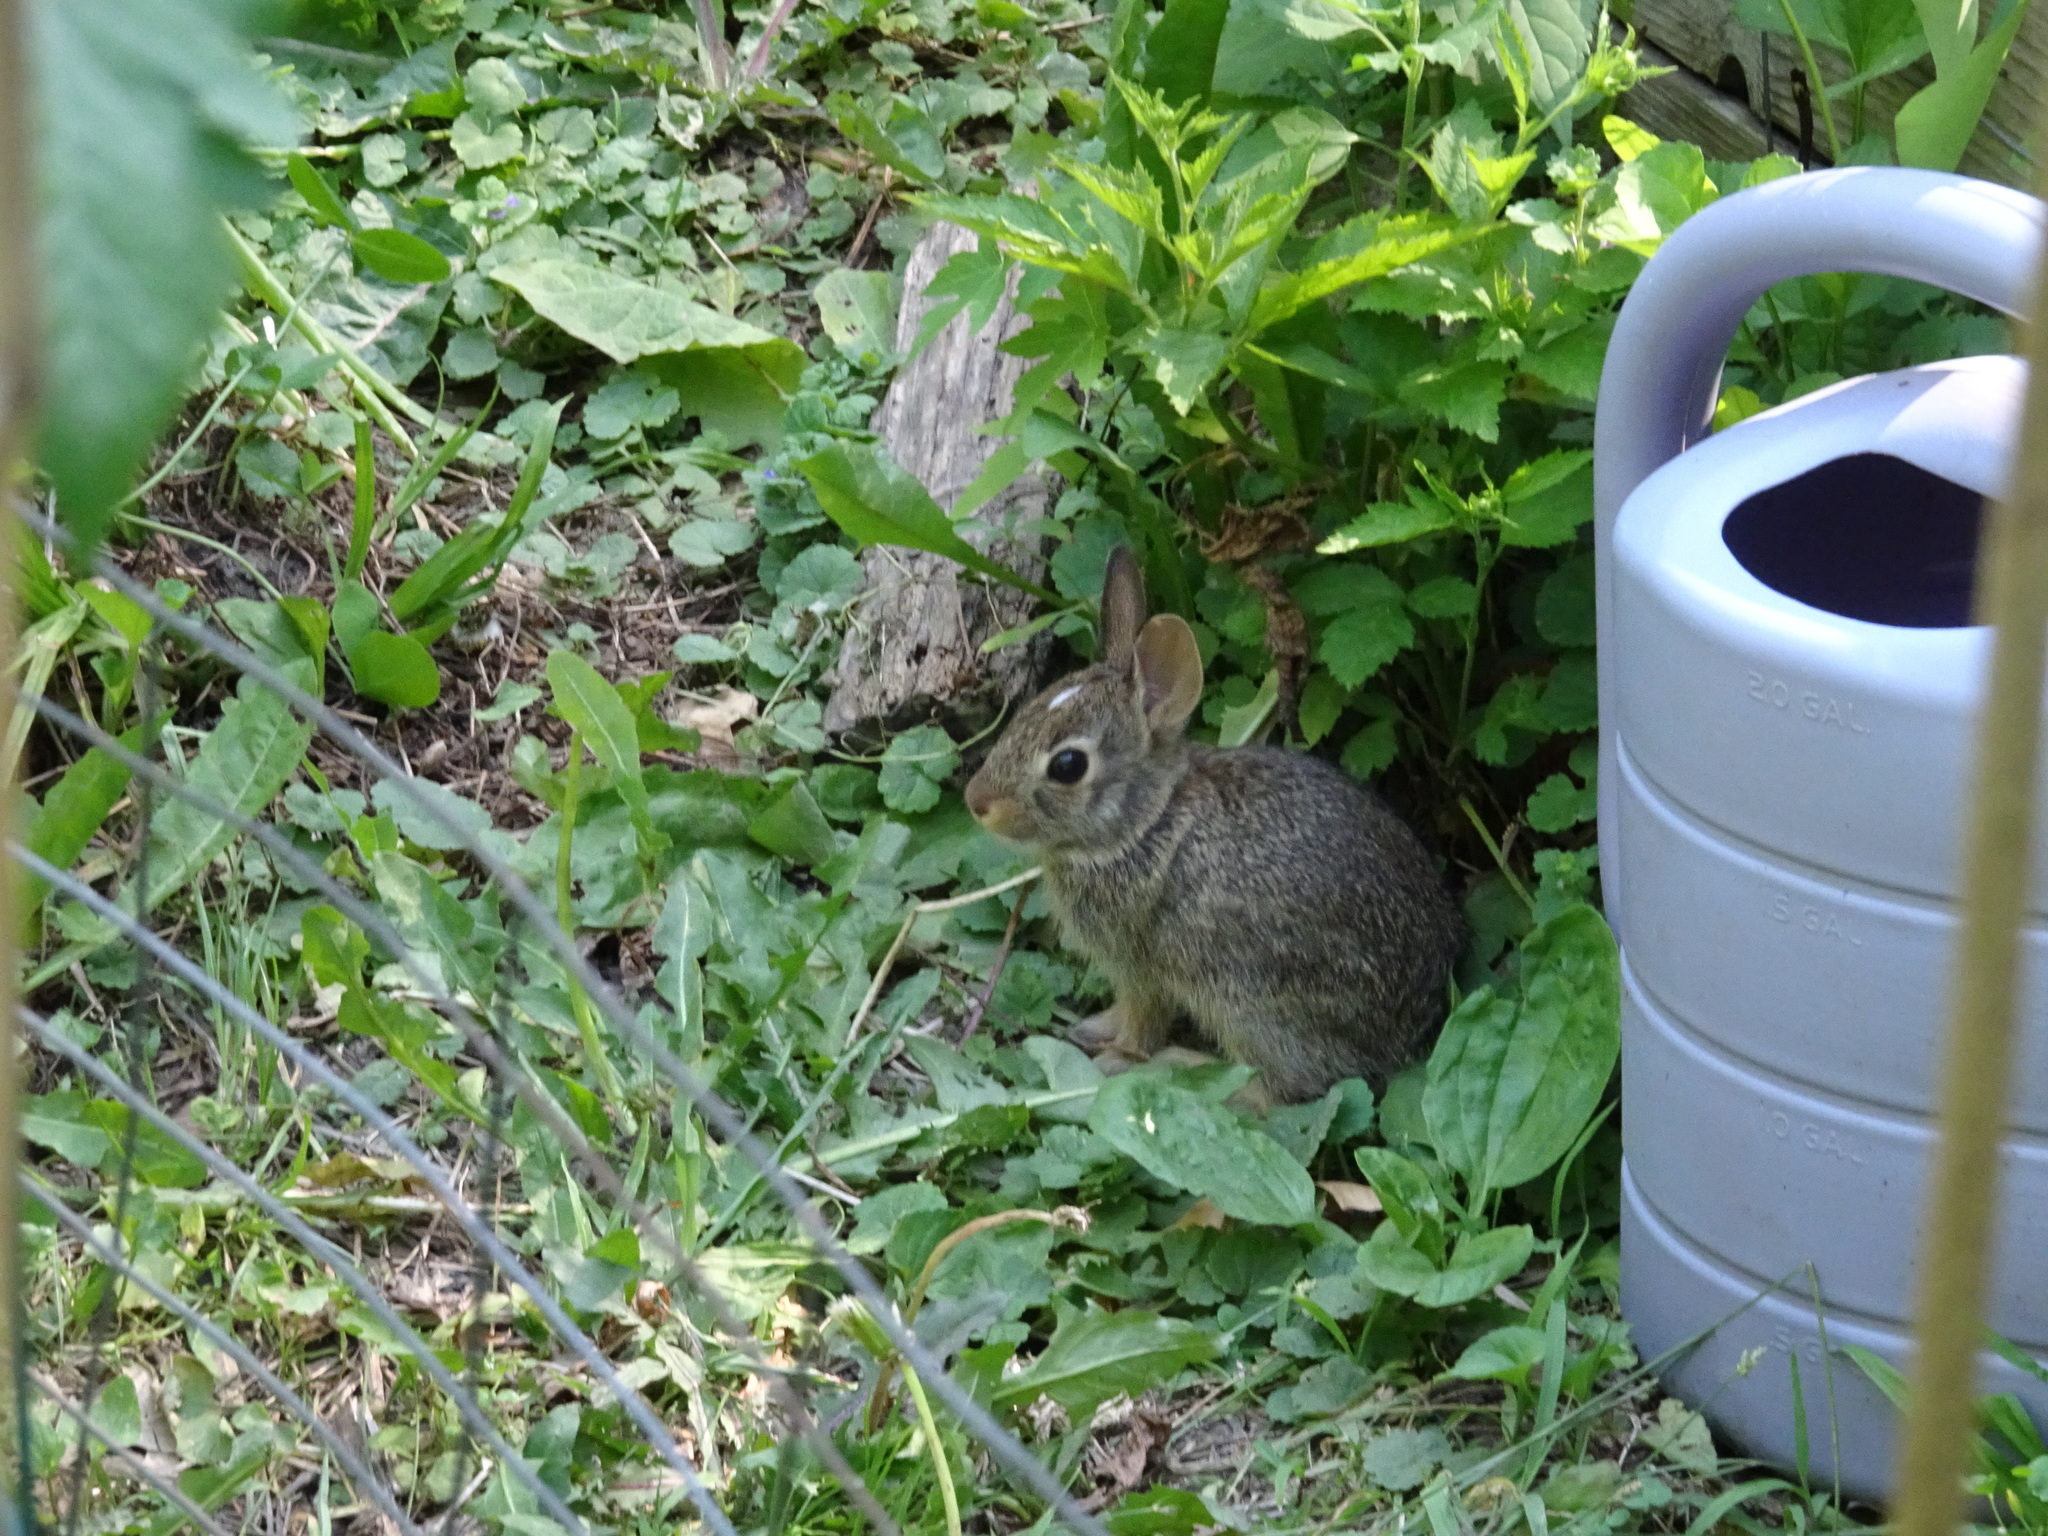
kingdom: Animalia
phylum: Chordata
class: Mammalia
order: Lagomorpha
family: Leporidae
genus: Sylvilagus
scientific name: Sylvilagus floridanus
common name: Eastern cottontail
